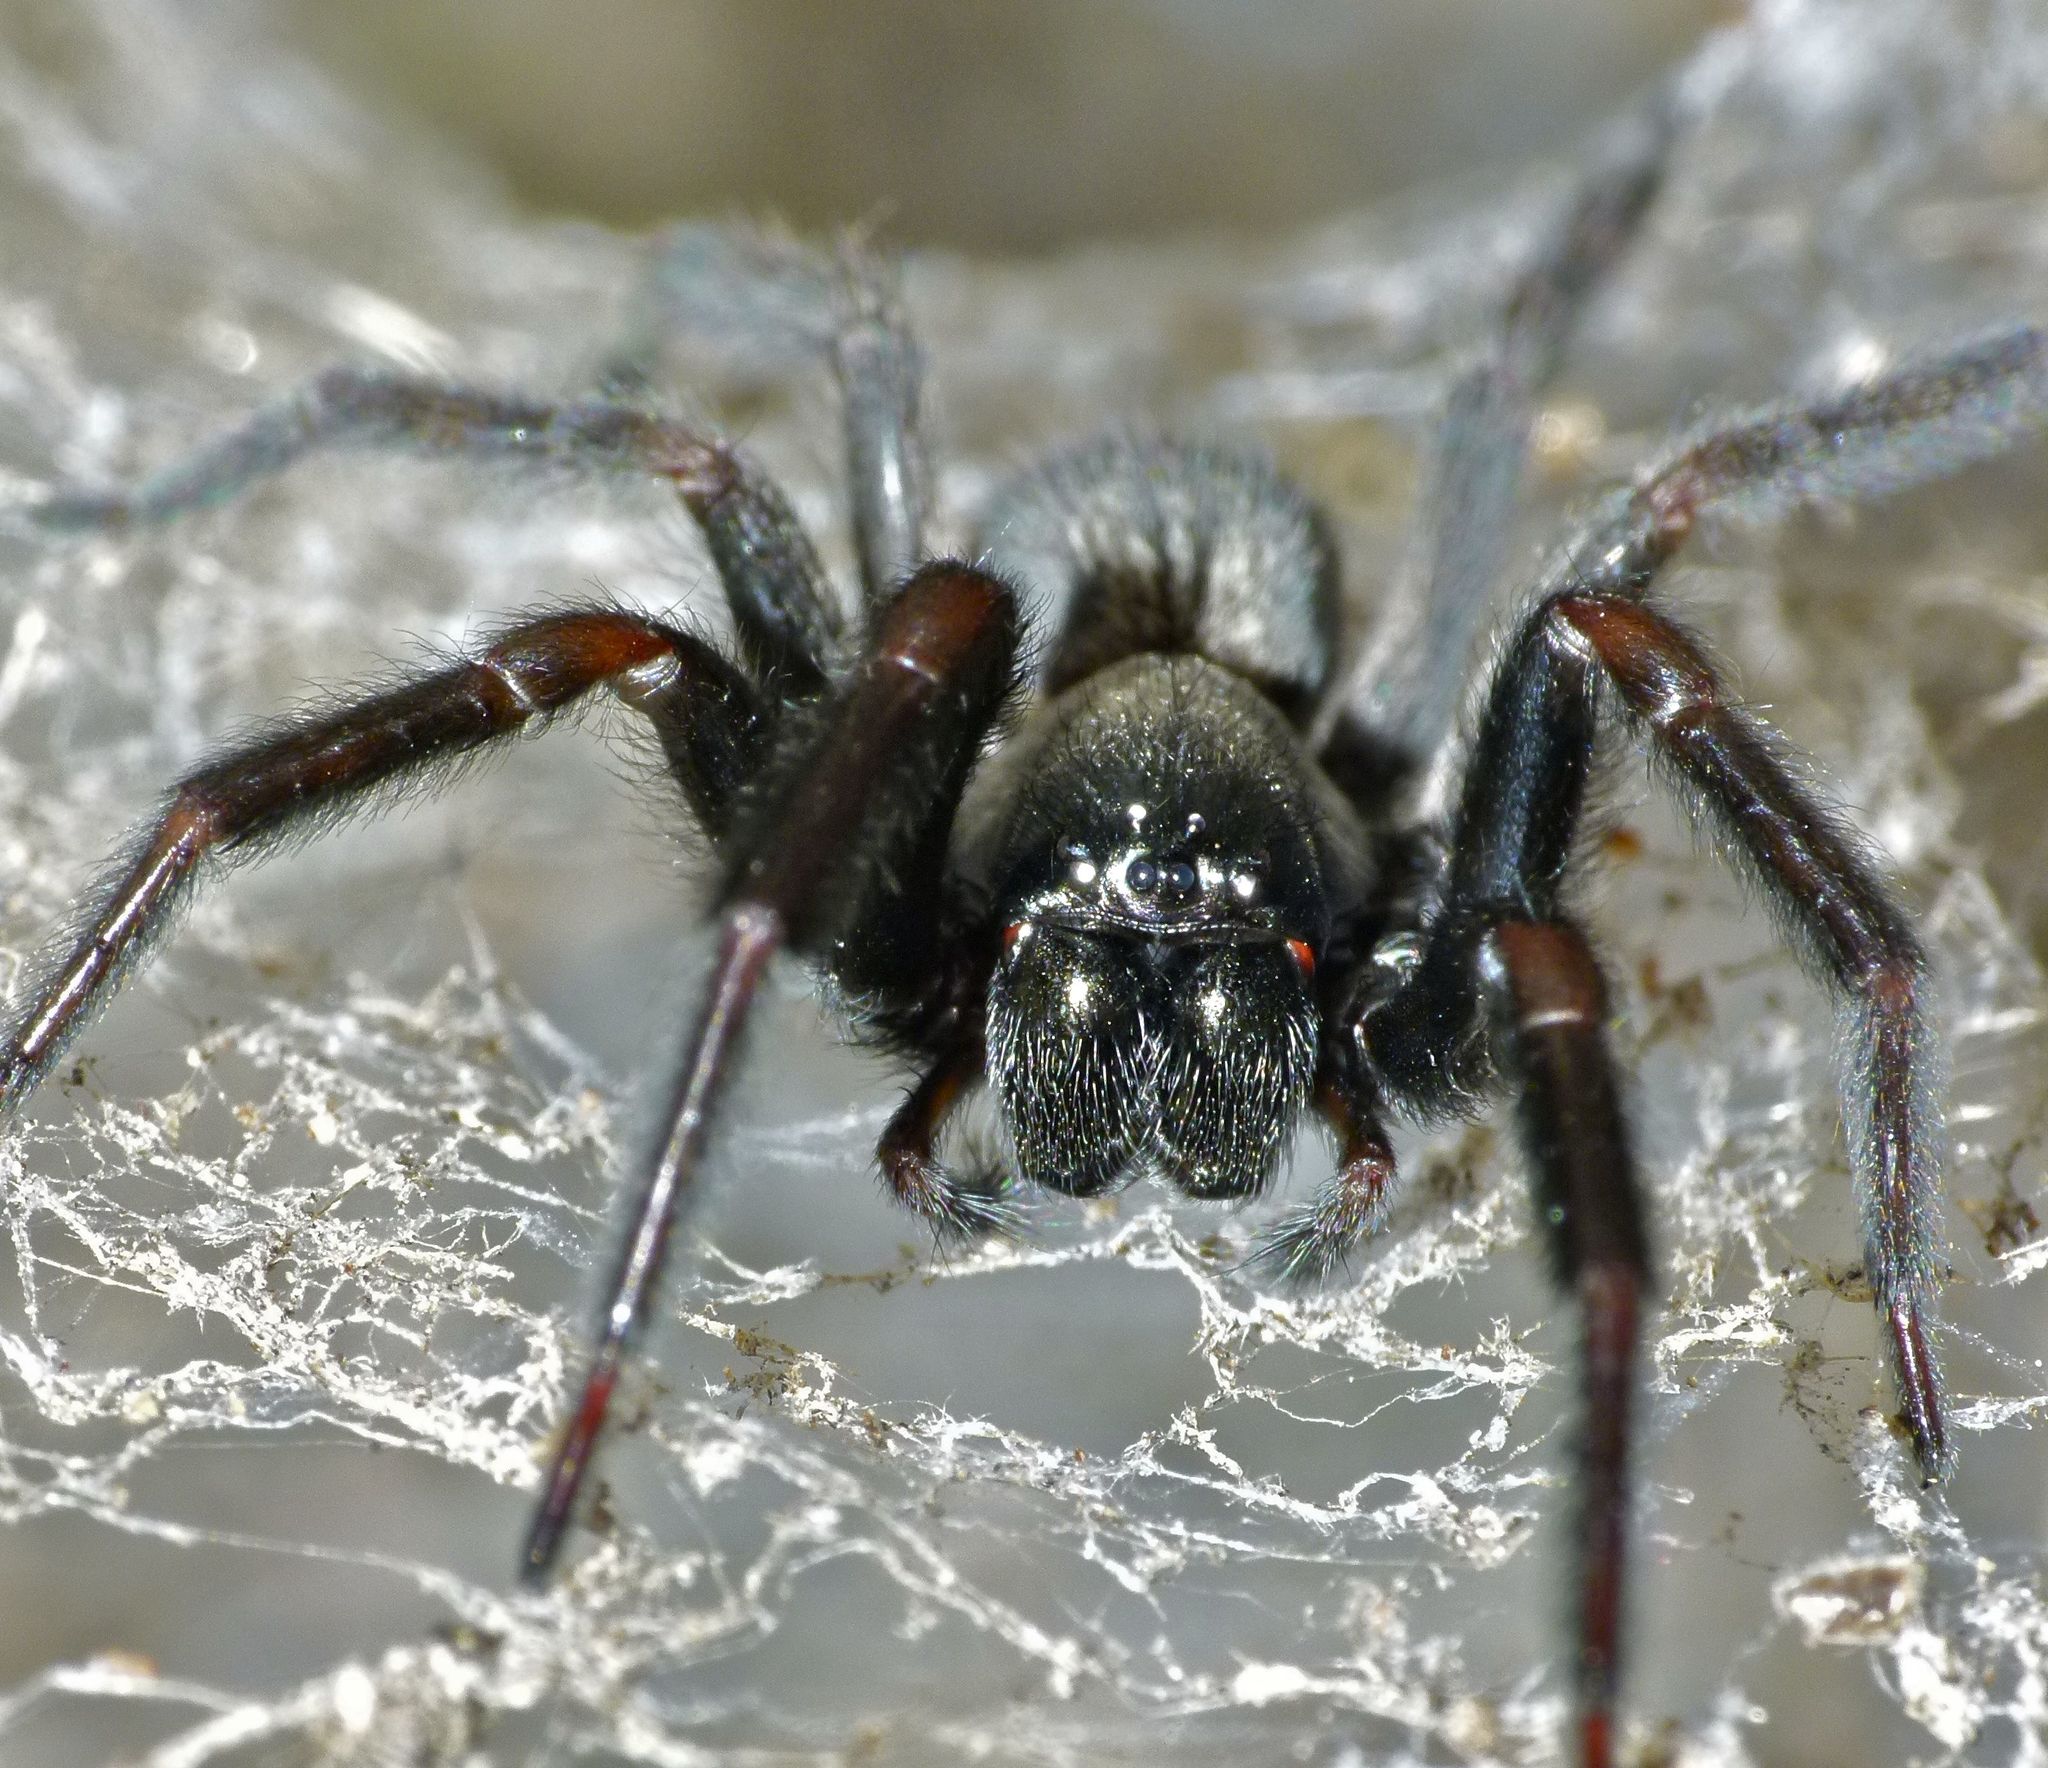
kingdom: Animalia
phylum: Arthropoda
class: Arachnida
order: Araneae
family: Desidae
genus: Badumna
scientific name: Badumna insignis
